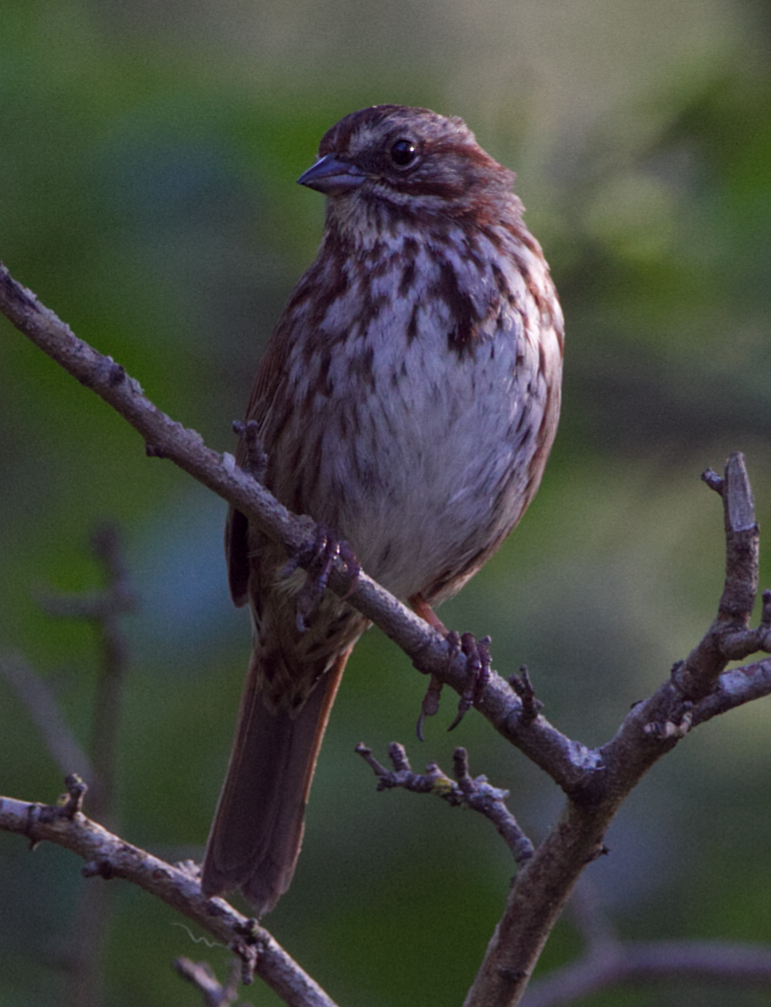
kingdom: Animalia
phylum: Chordata
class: Aves
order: Passeriformes
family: Passerellidae
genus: Melospiza
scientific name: Melospiza melodia
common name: Song sparrow
